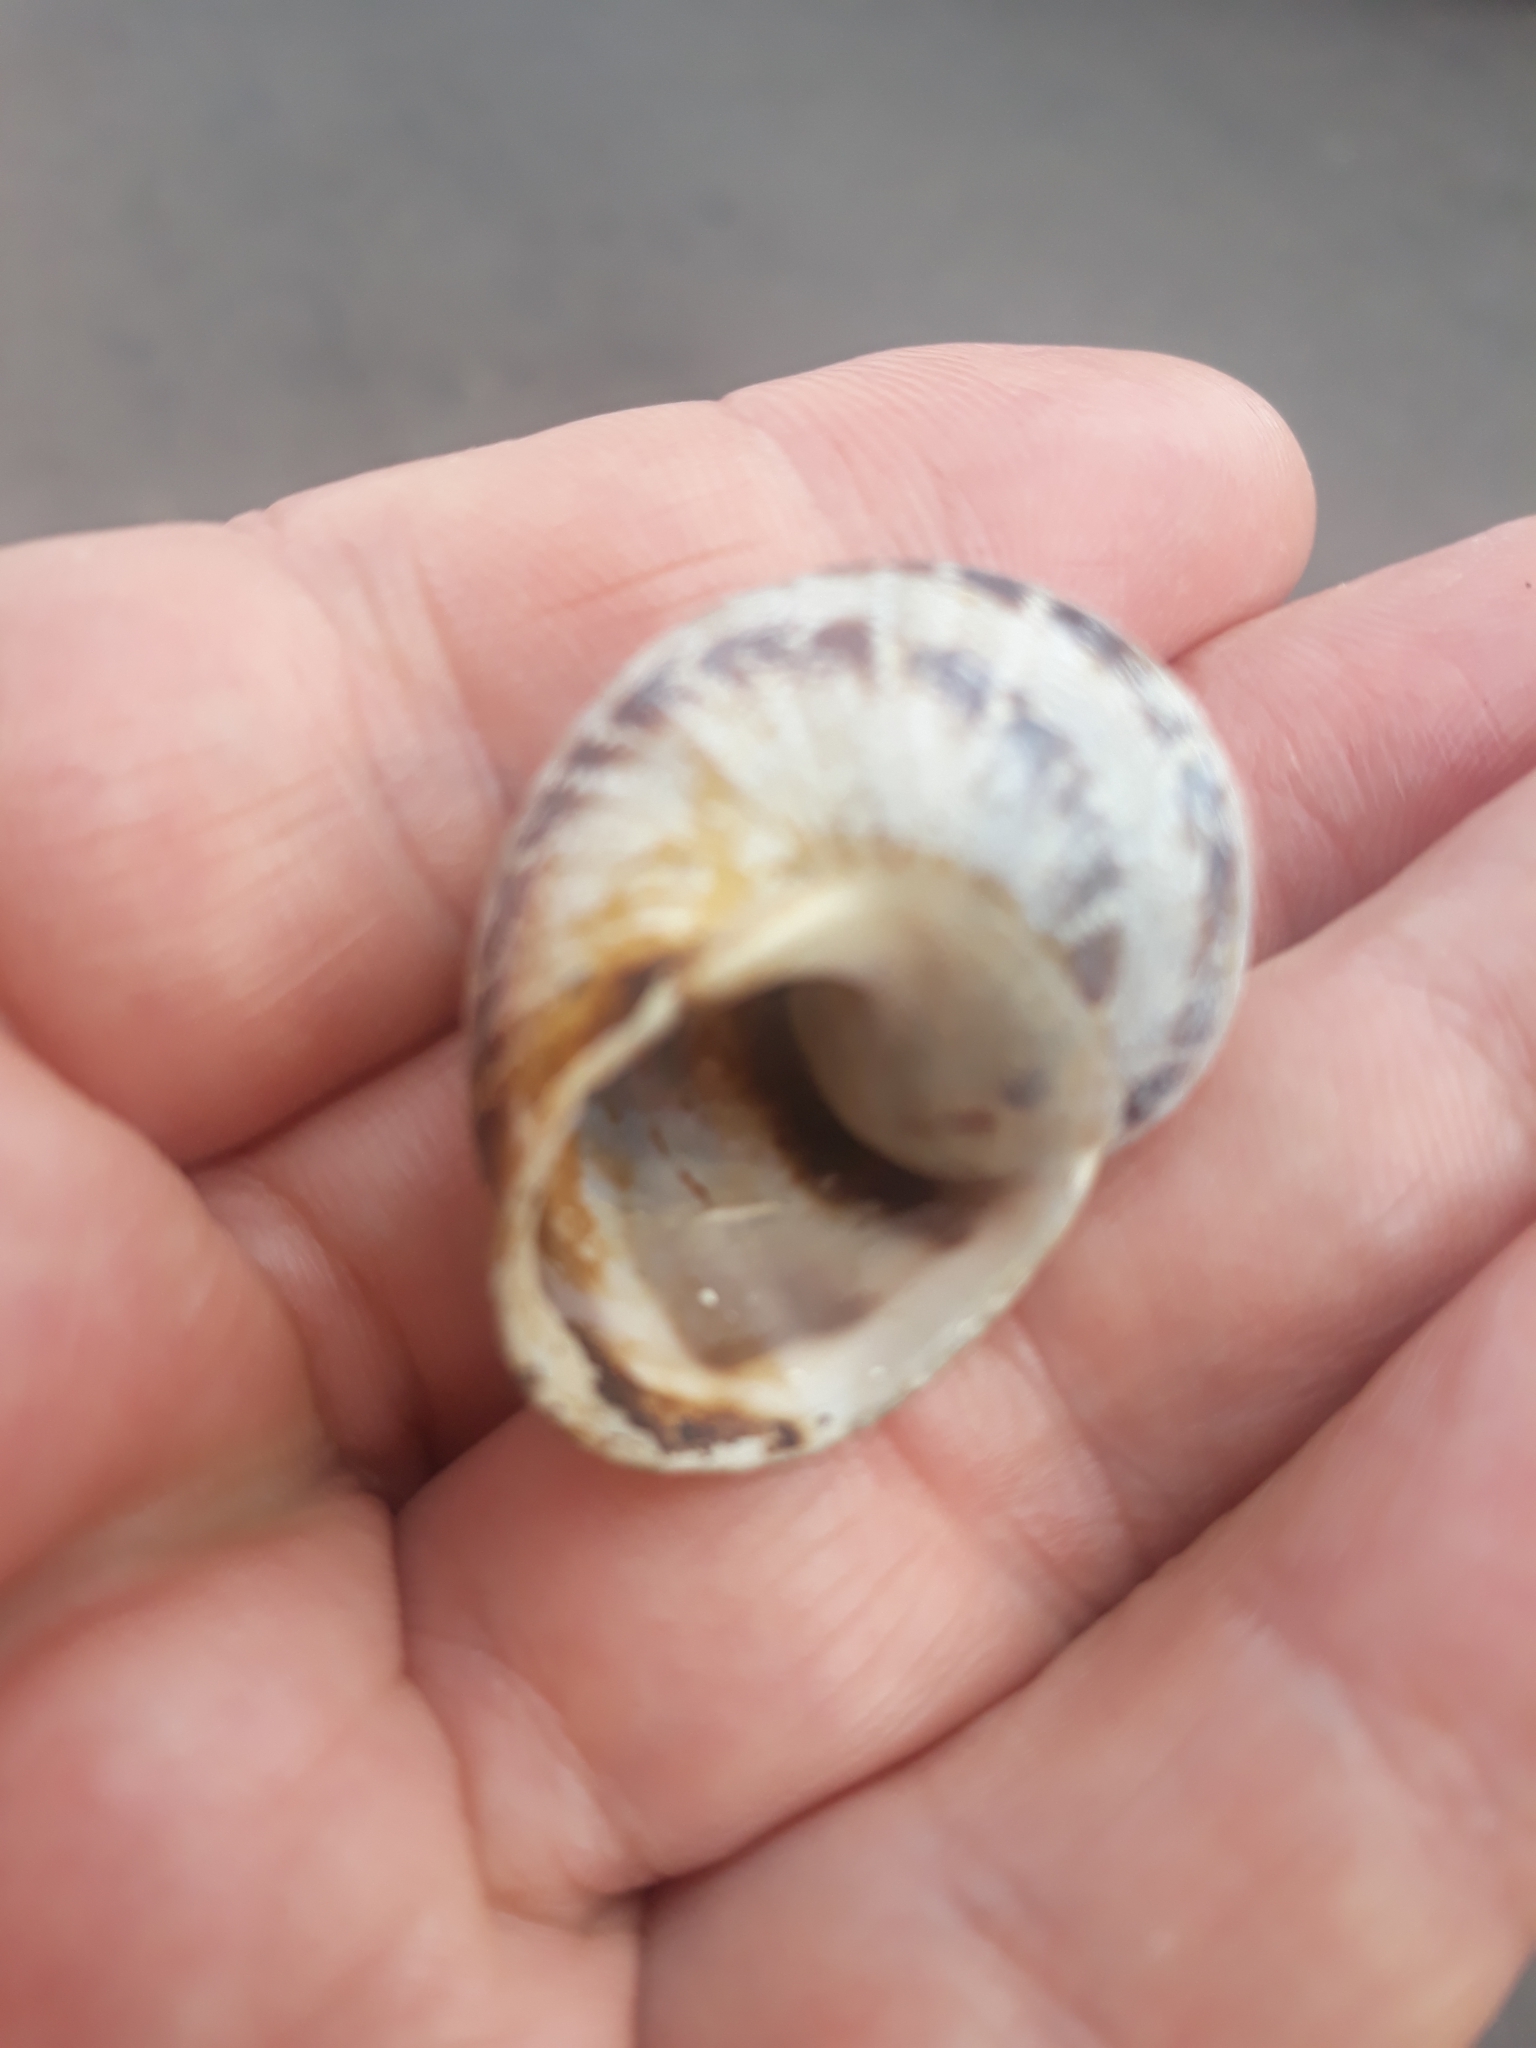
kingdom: Animalia
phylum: Mollusca
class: Gastropoda
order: Stylommatophora
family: Helicidae
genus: Cornu
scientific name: Cornu aspersum
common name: Brown garden snail
